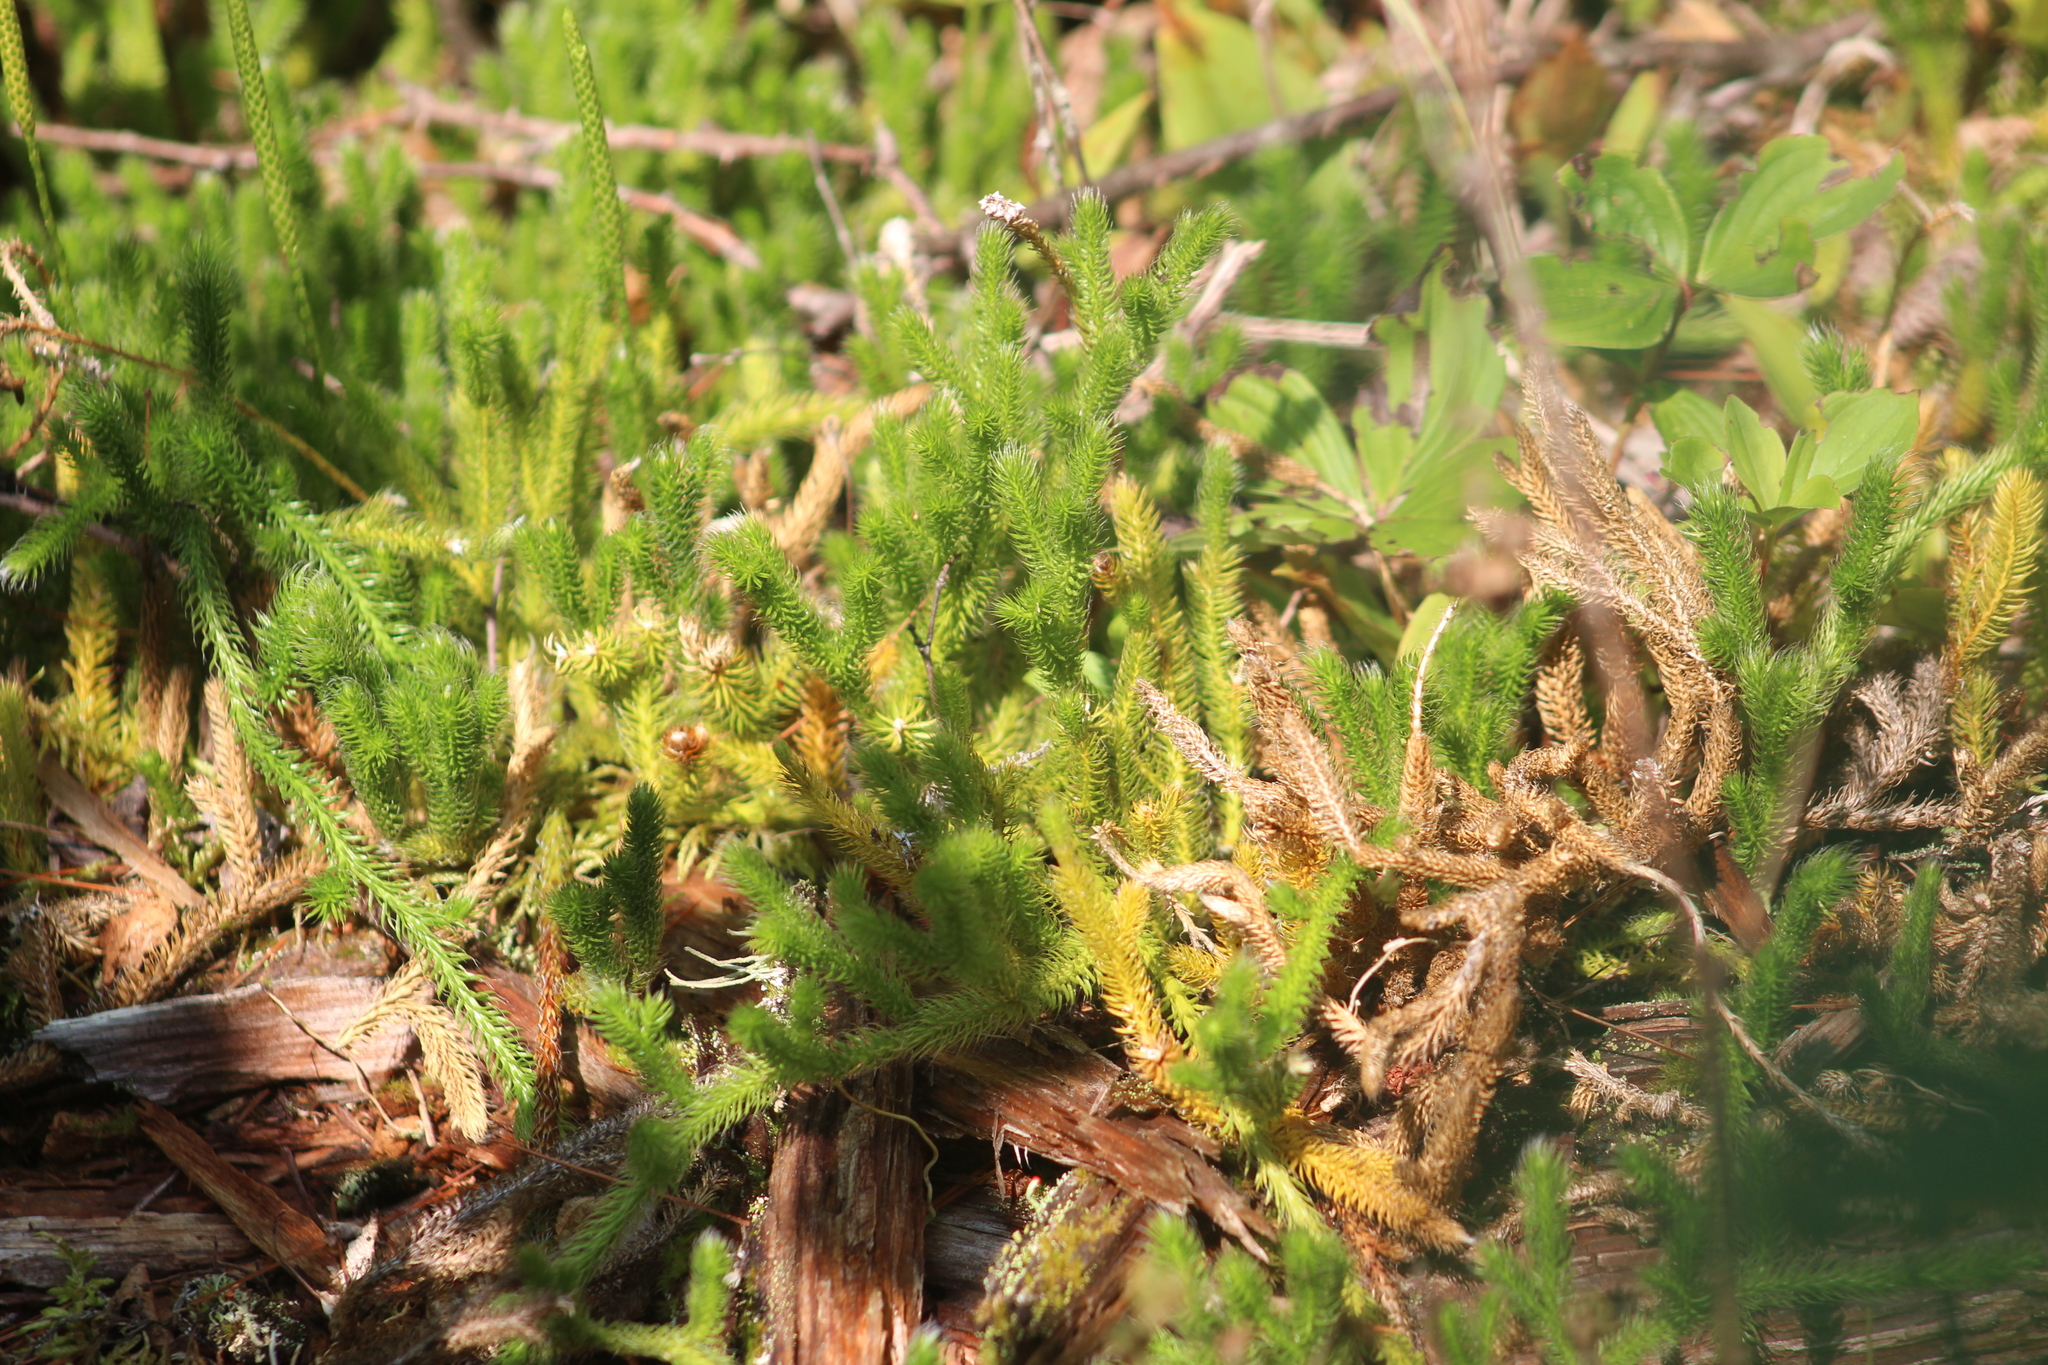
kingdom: Plantae
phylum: Tracheophyta
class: Lycopodiopsida
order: Lycopodiales
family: Lycopodiaceae
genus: Lycopodium
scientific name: Lycopodium clavatum
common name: Stag's-horn clubmoss
